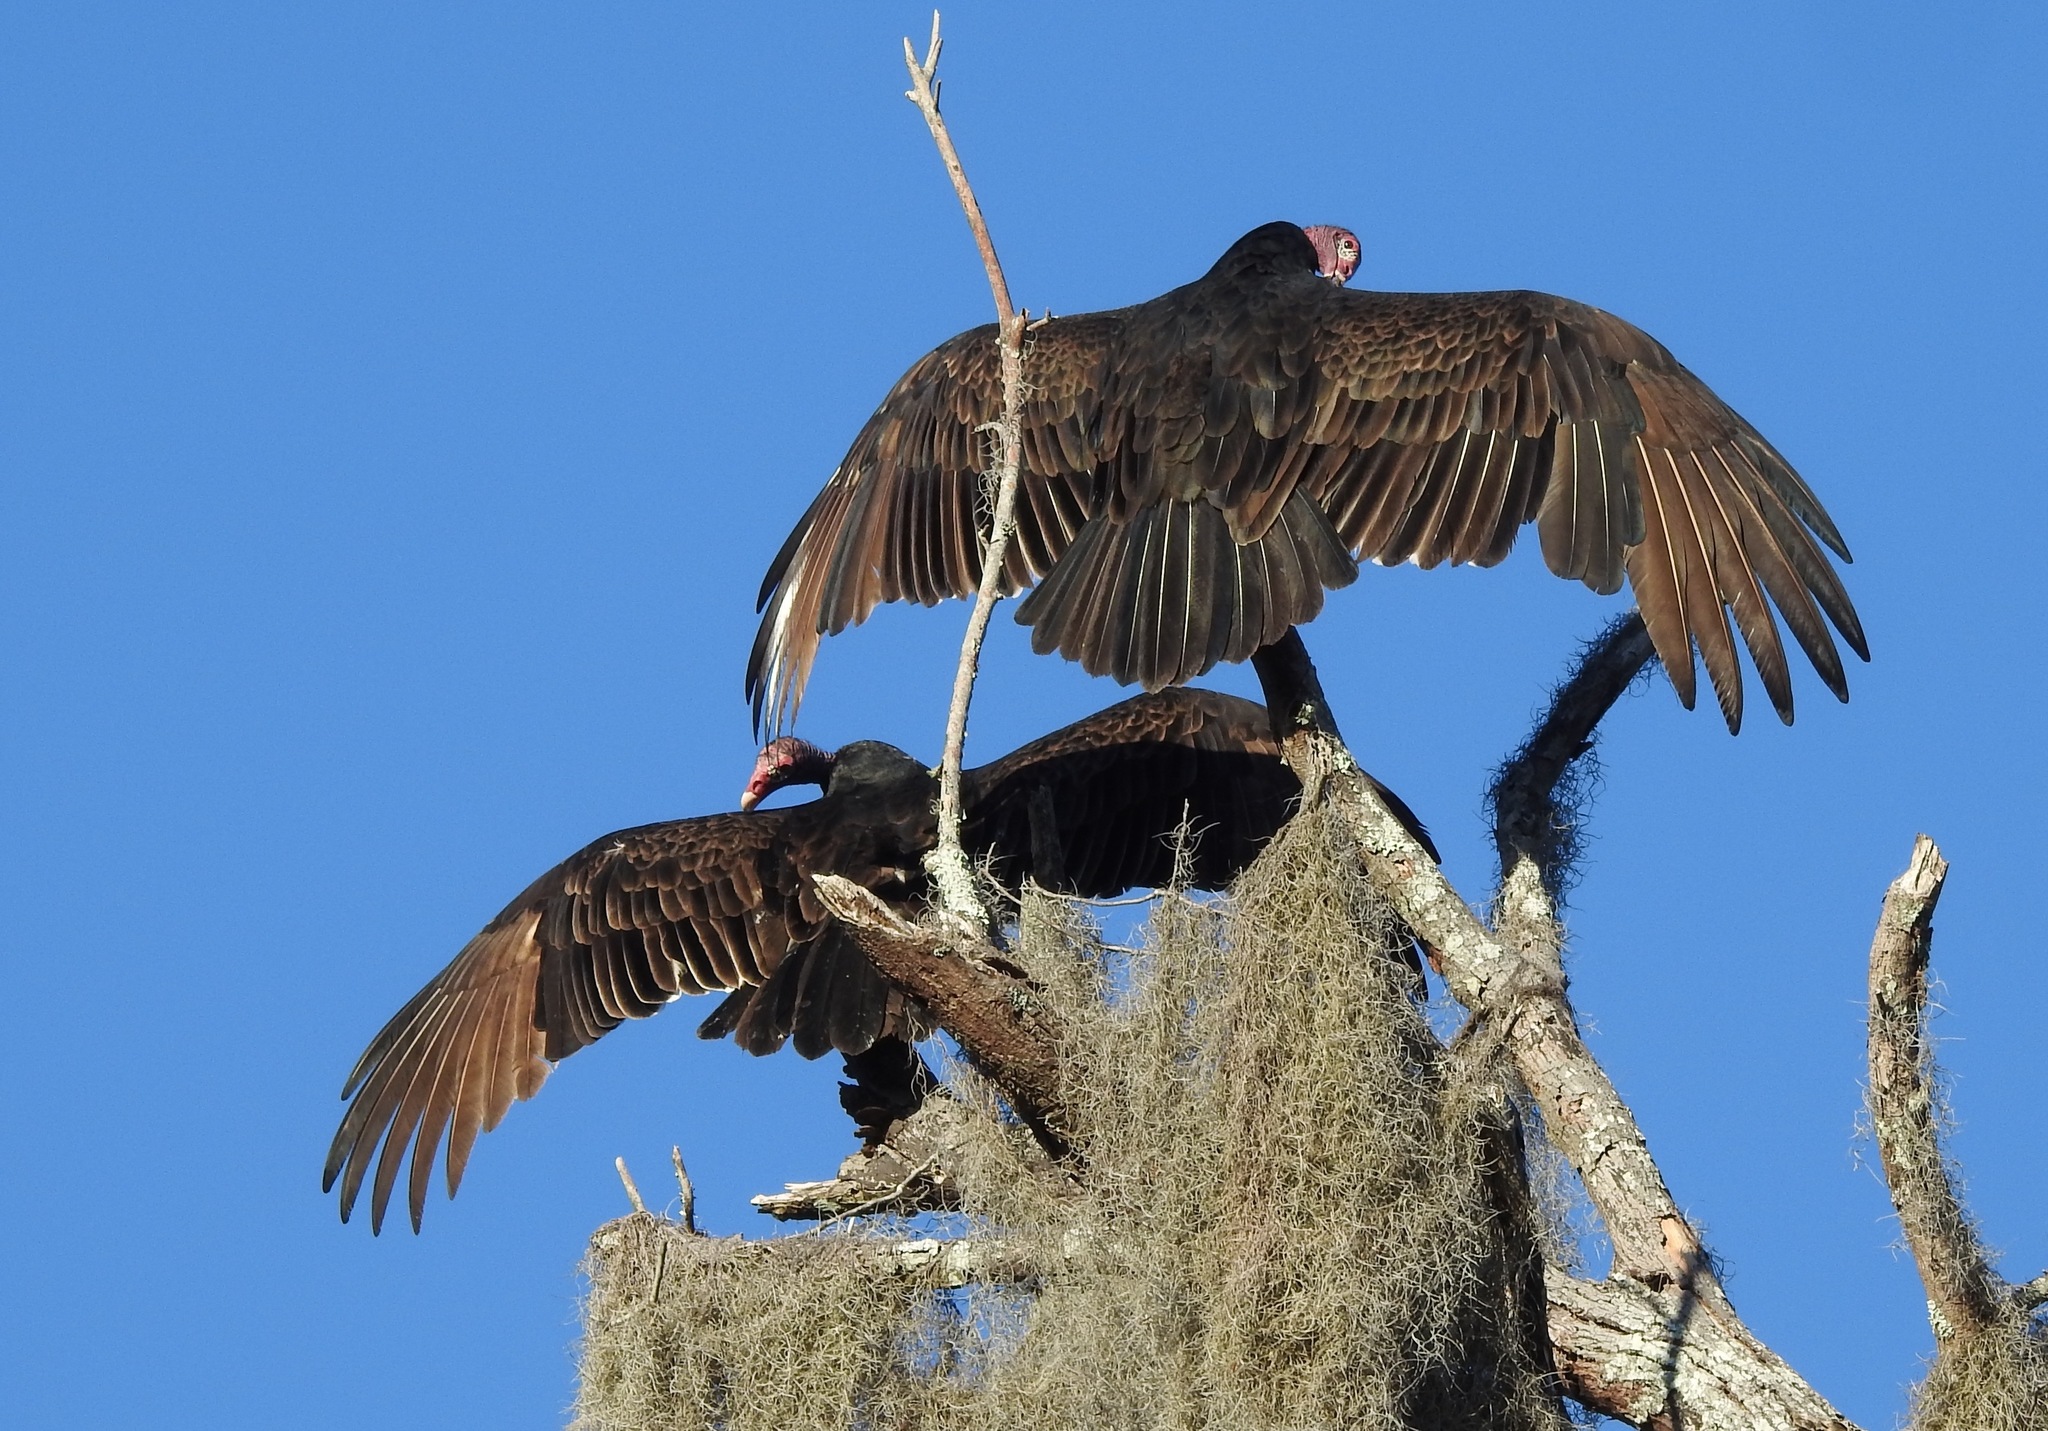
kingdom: Animalia
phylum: Chordata
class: Aves
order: Accipitriformes
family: Cathartidae
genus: Cathartes
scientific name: Cathartes aura
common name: Turkey vulture
